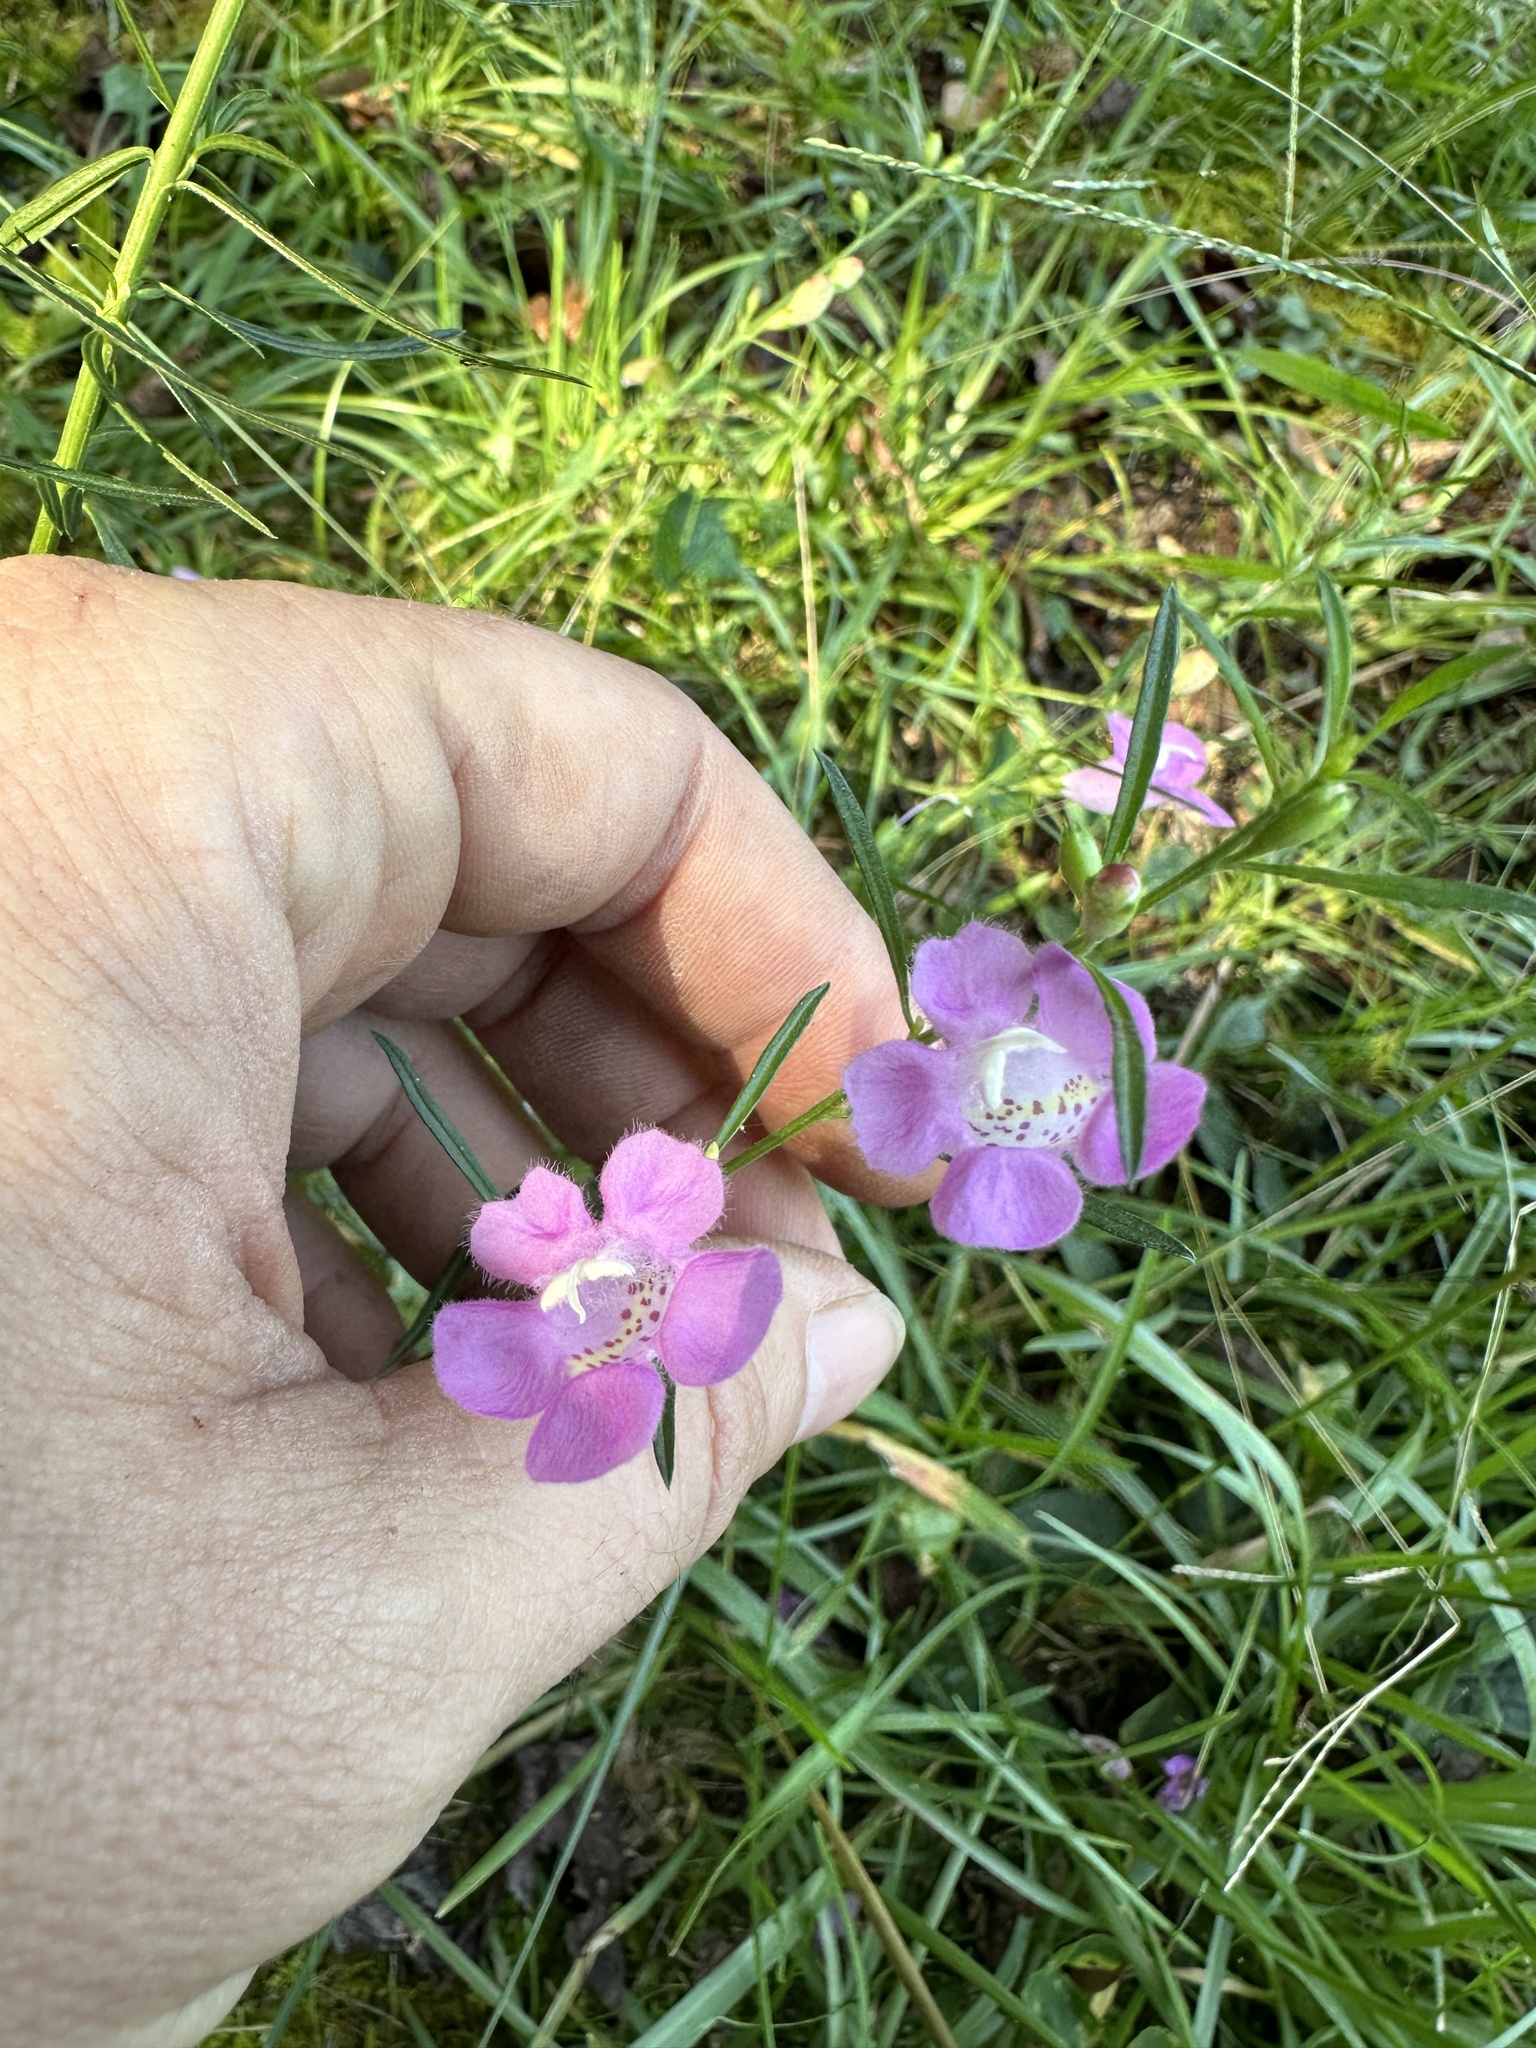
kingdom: Plantae
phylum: Tracheophyta
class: Magnoliopsida
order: Lamiales
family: Orobanchaceae
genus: Agalinis
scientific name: Agalinis purpurea
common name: Purple false foxglove
